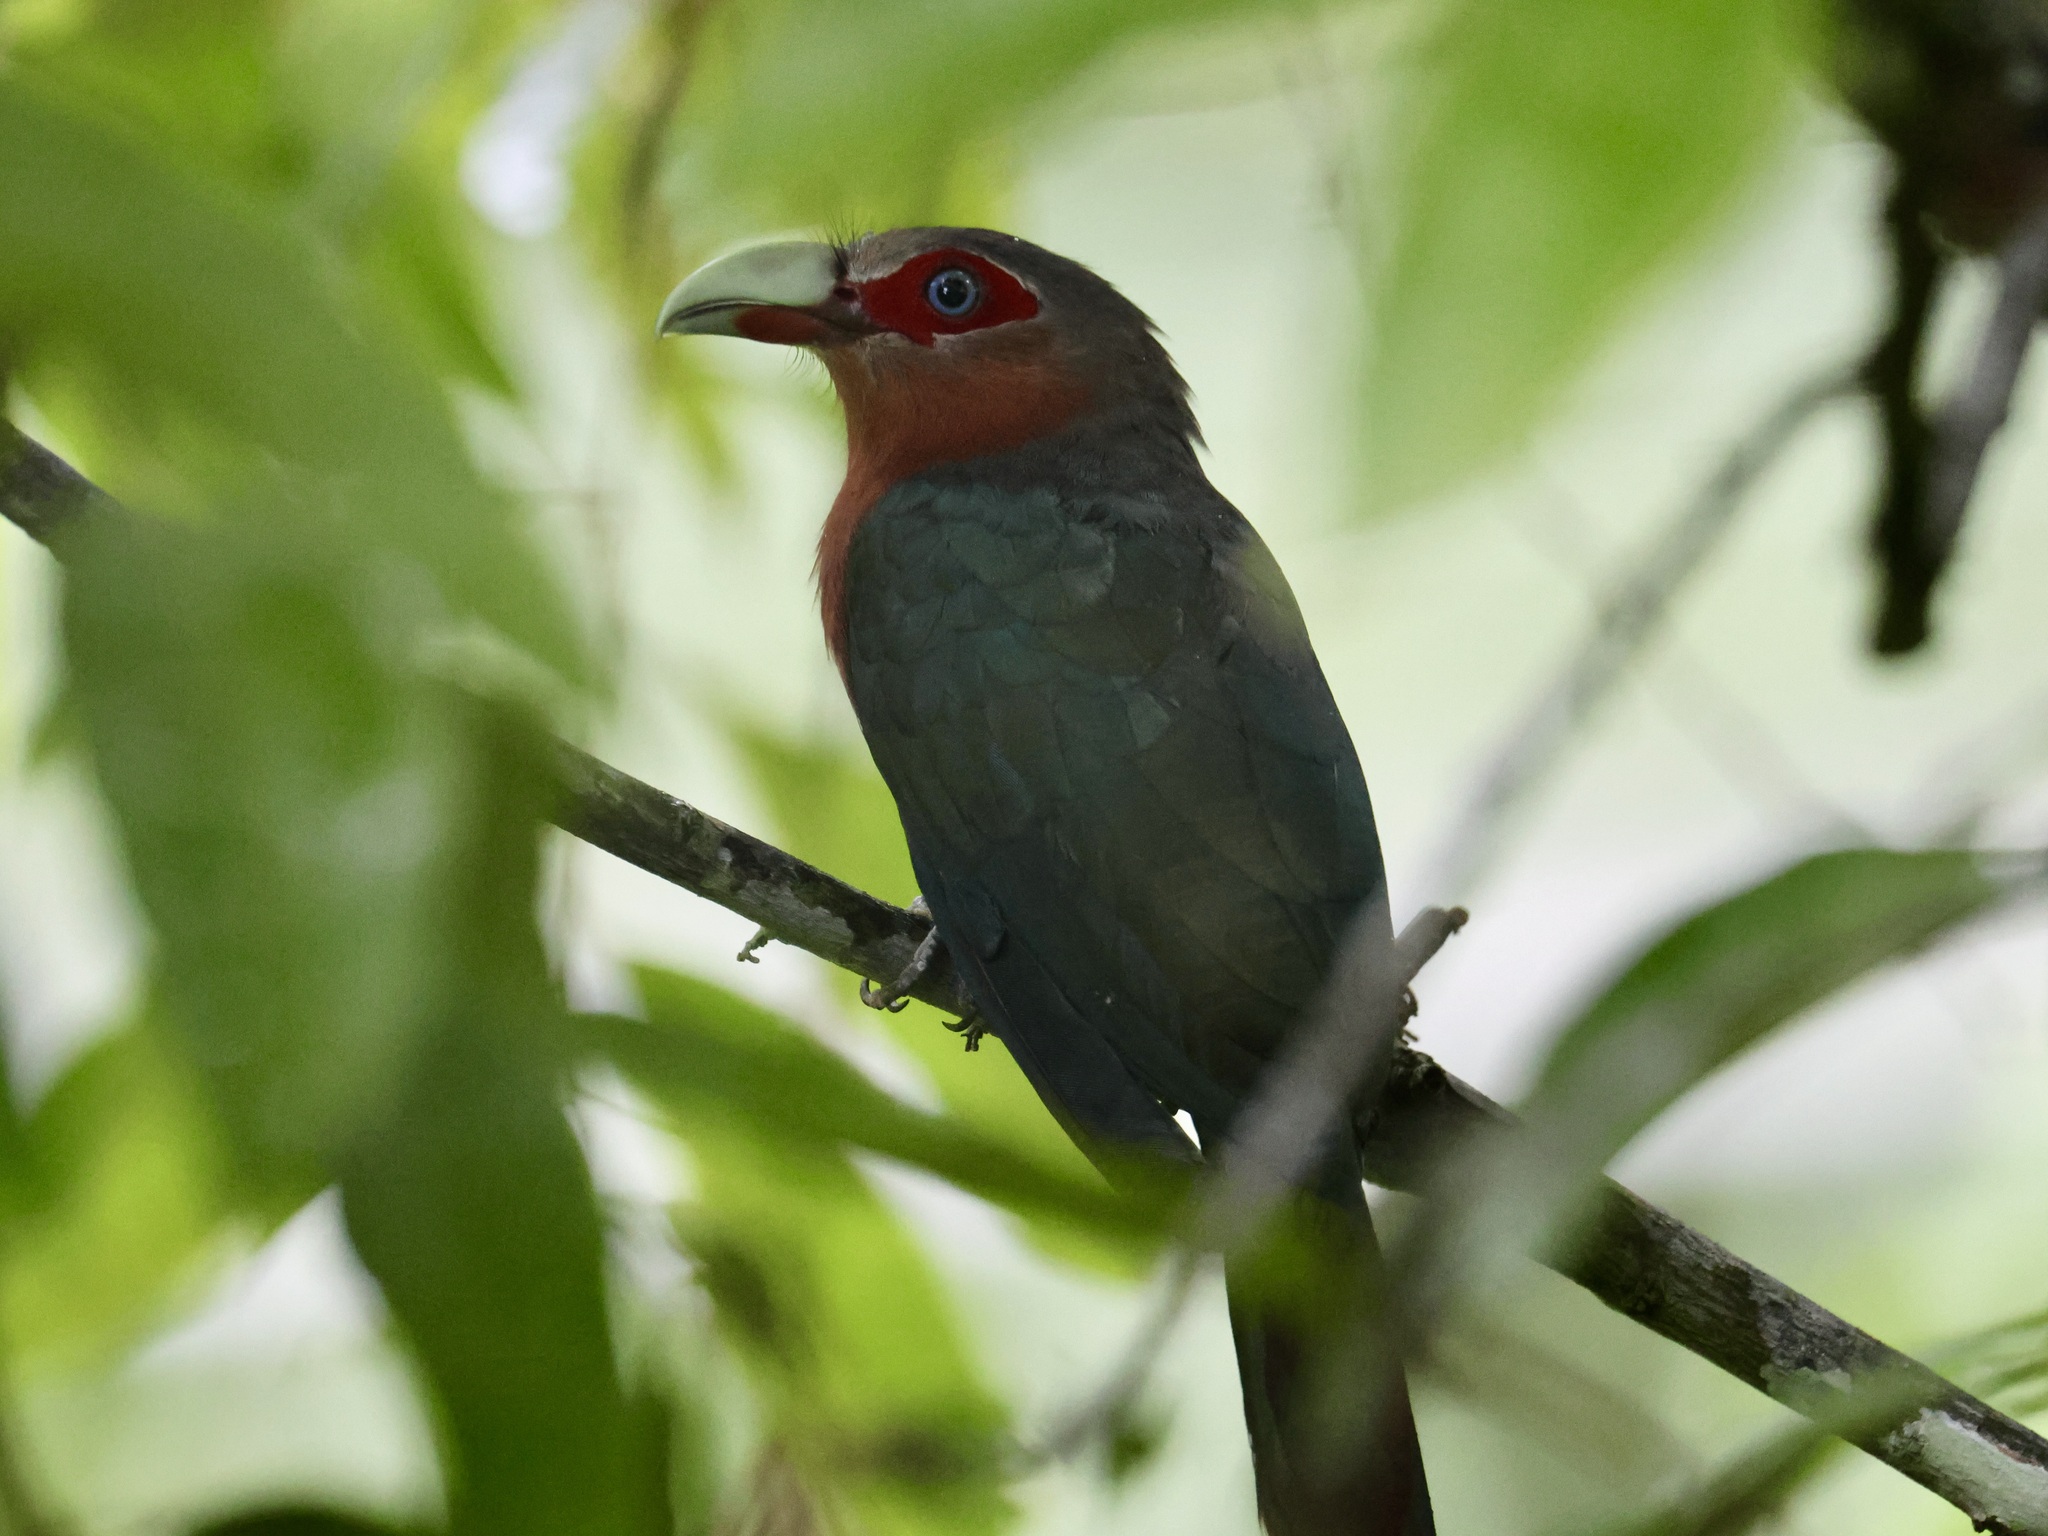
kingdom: Animalia
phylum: Chordata
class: Aves
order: Cuculiformes
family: Cuculidae
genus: Zanclostomus
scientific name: Zanclostomus curvirostris
